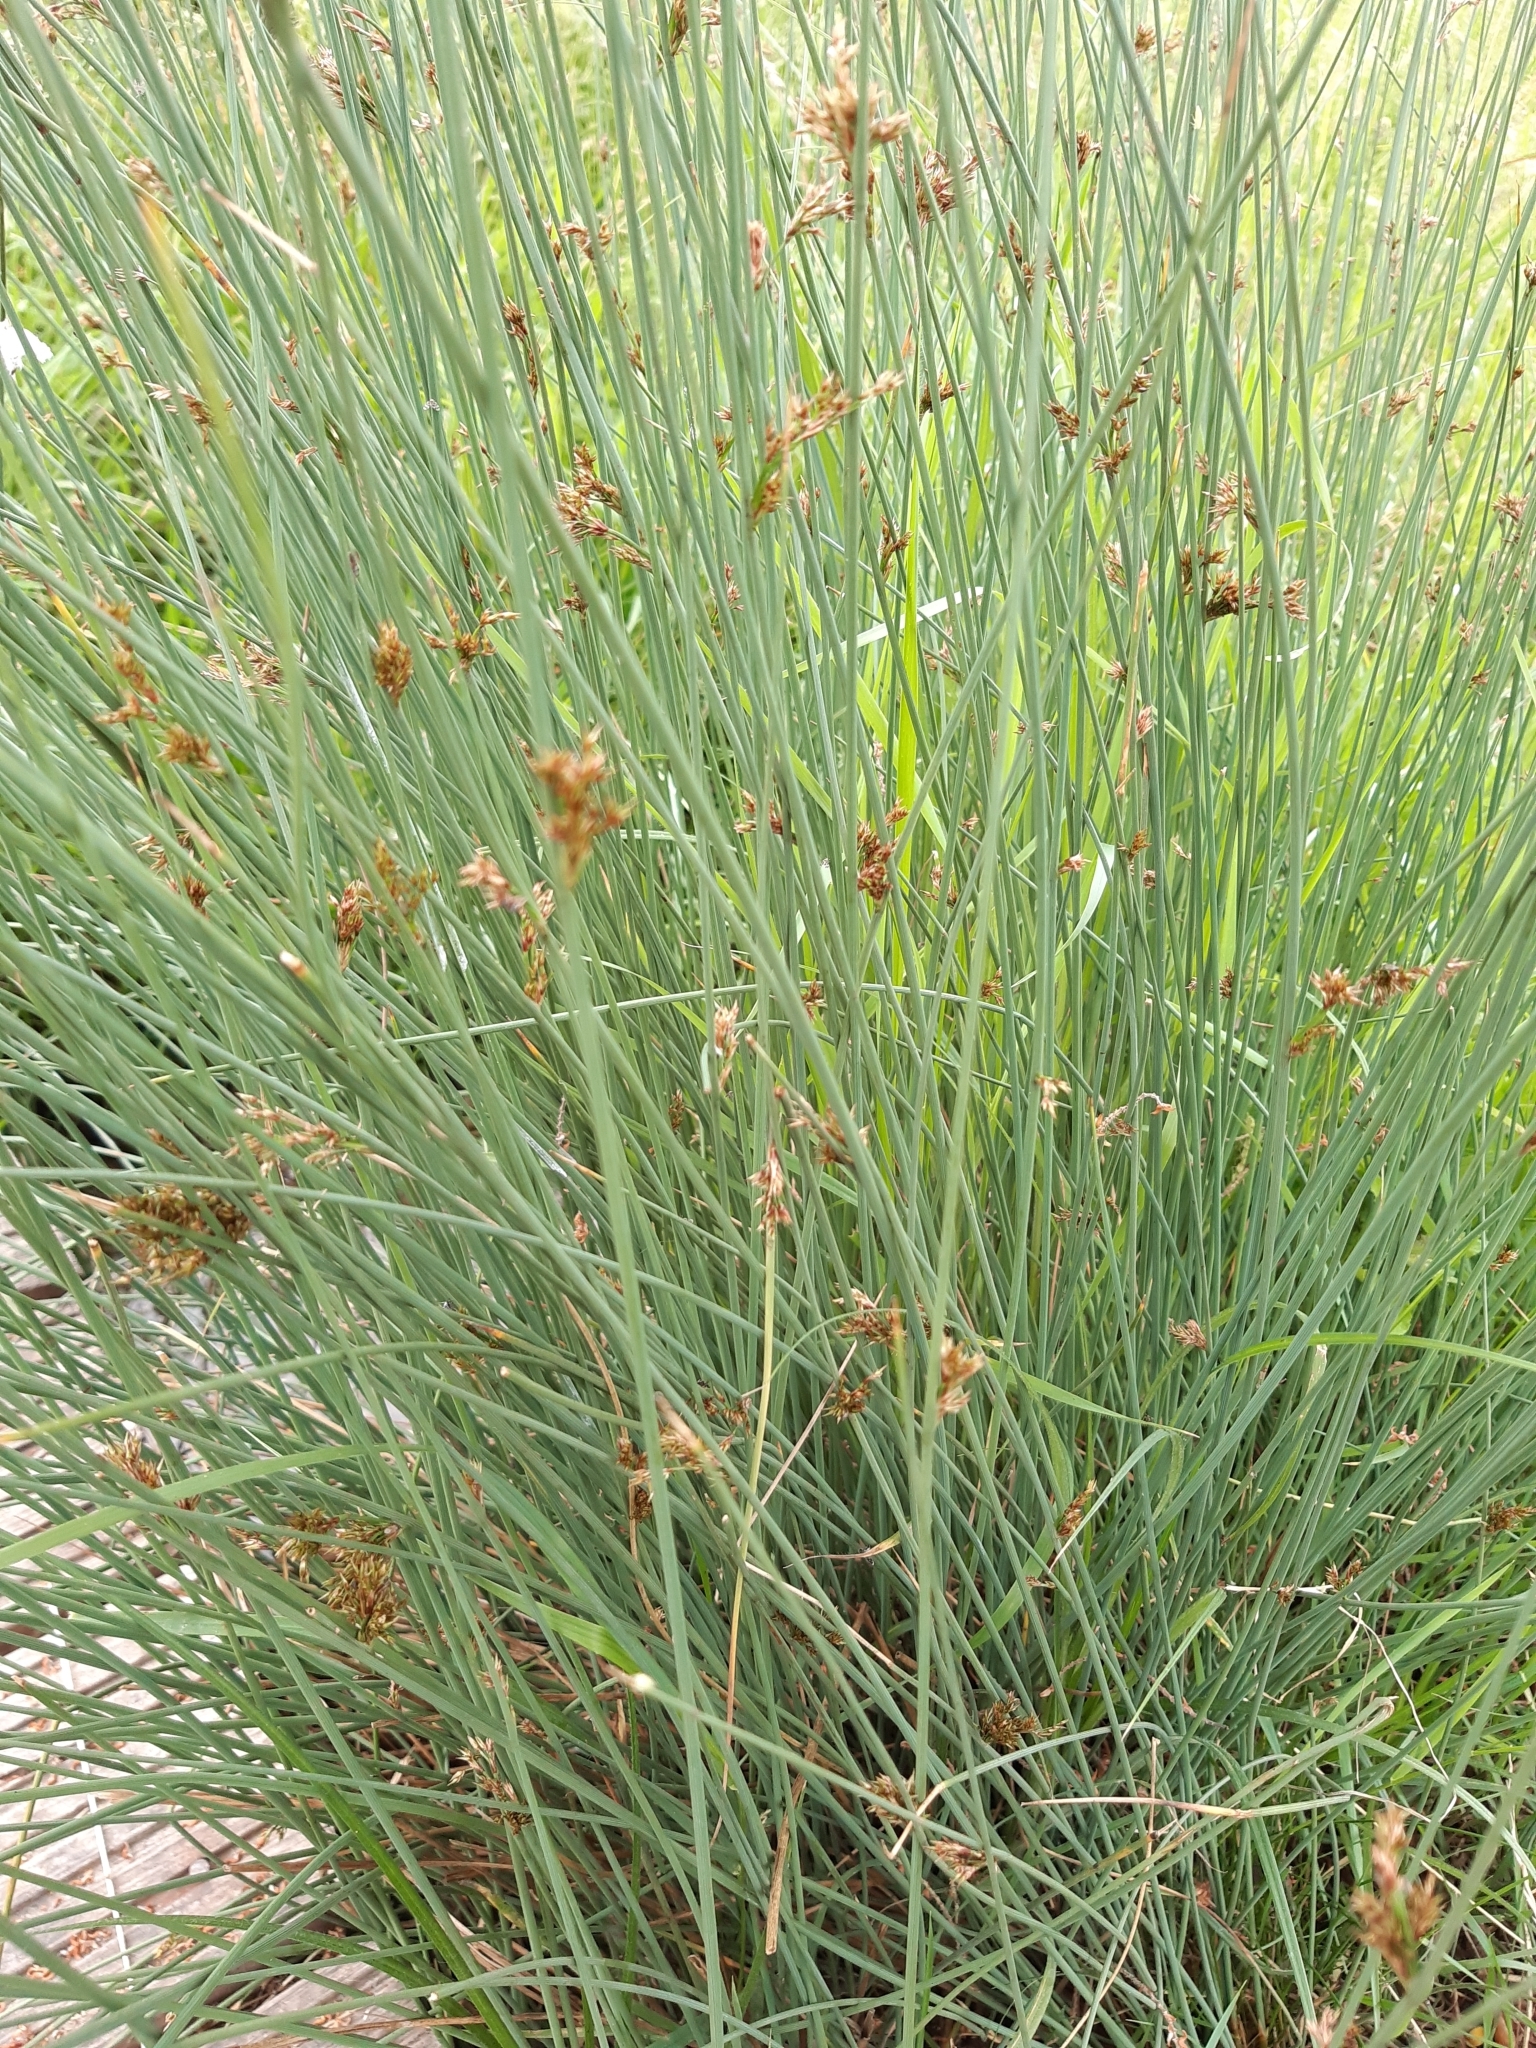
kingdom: Plantae
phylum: Tracheophyta
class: Liliopsida
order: Poales
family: Juncaceae
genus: Juncus
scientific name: Juncus inflexus
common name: Hard rush
